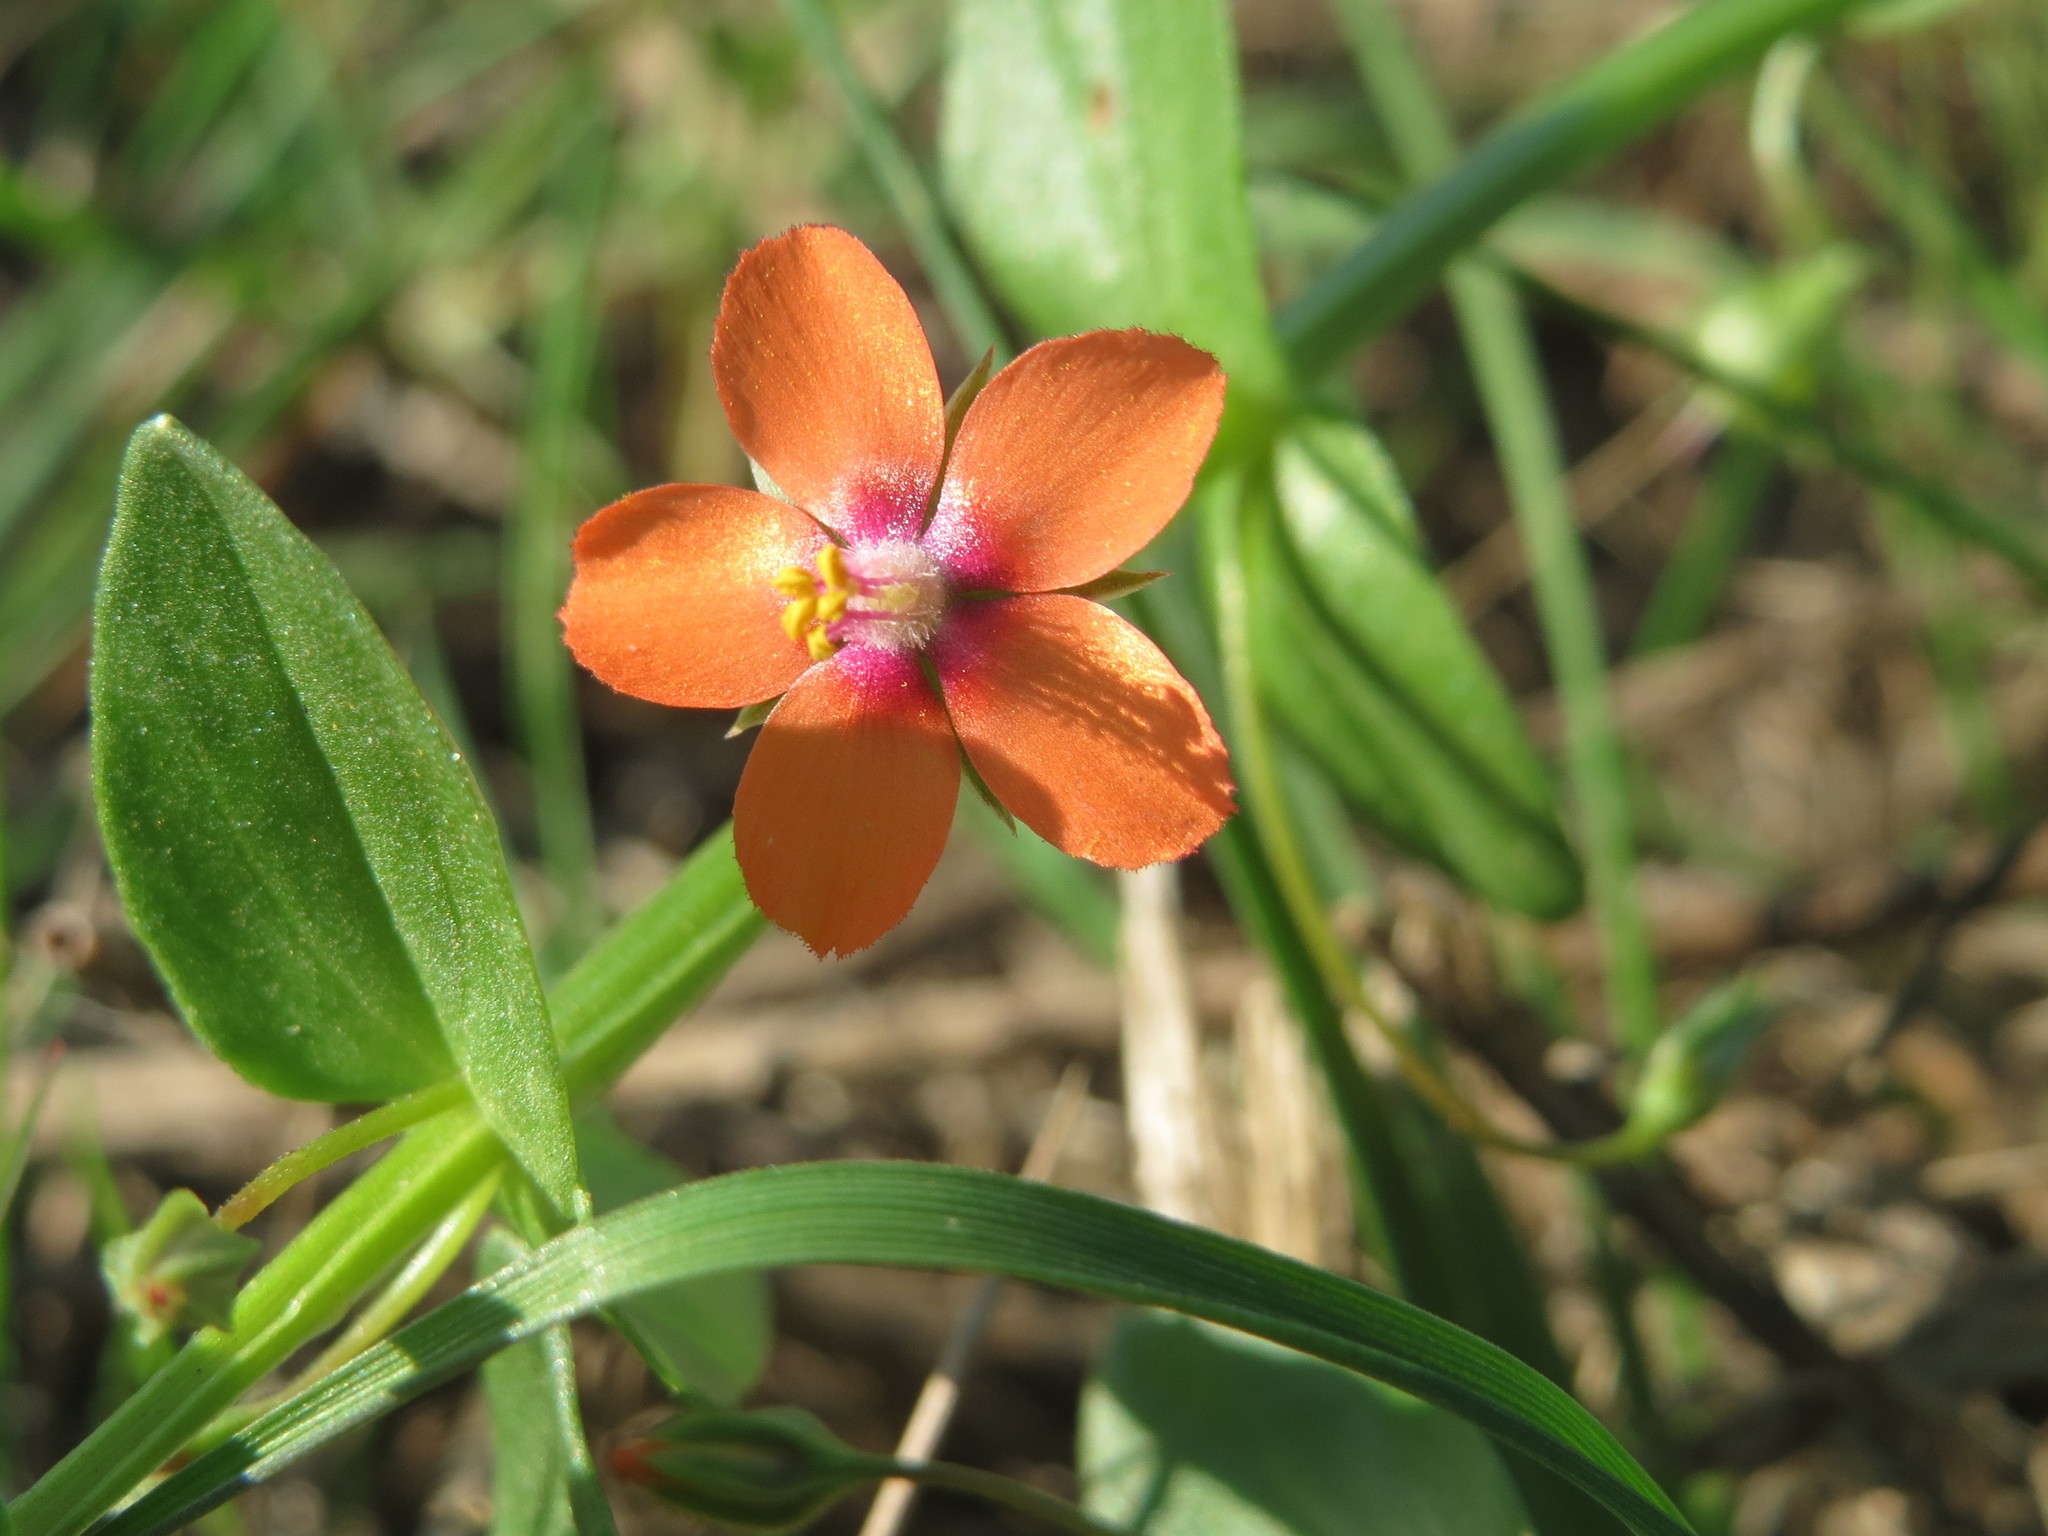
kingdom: Plantae
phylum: Tracheophyta
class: Magnoliopsida
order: Ericales
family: Primulaceae
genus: Lysimachia
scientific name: Lysimachia arvensis
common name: Scarlet pimpernel
